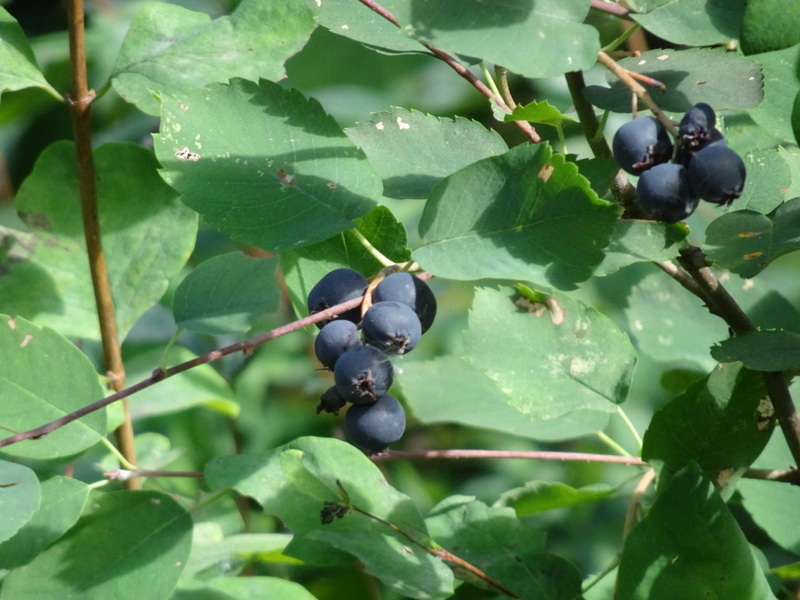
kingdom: Plantae
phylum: Tracheophyta
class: Magnoliopsida
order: Rosales
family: Rosaceae
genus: Amelanchier
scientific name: Amelanchier alnifolia
